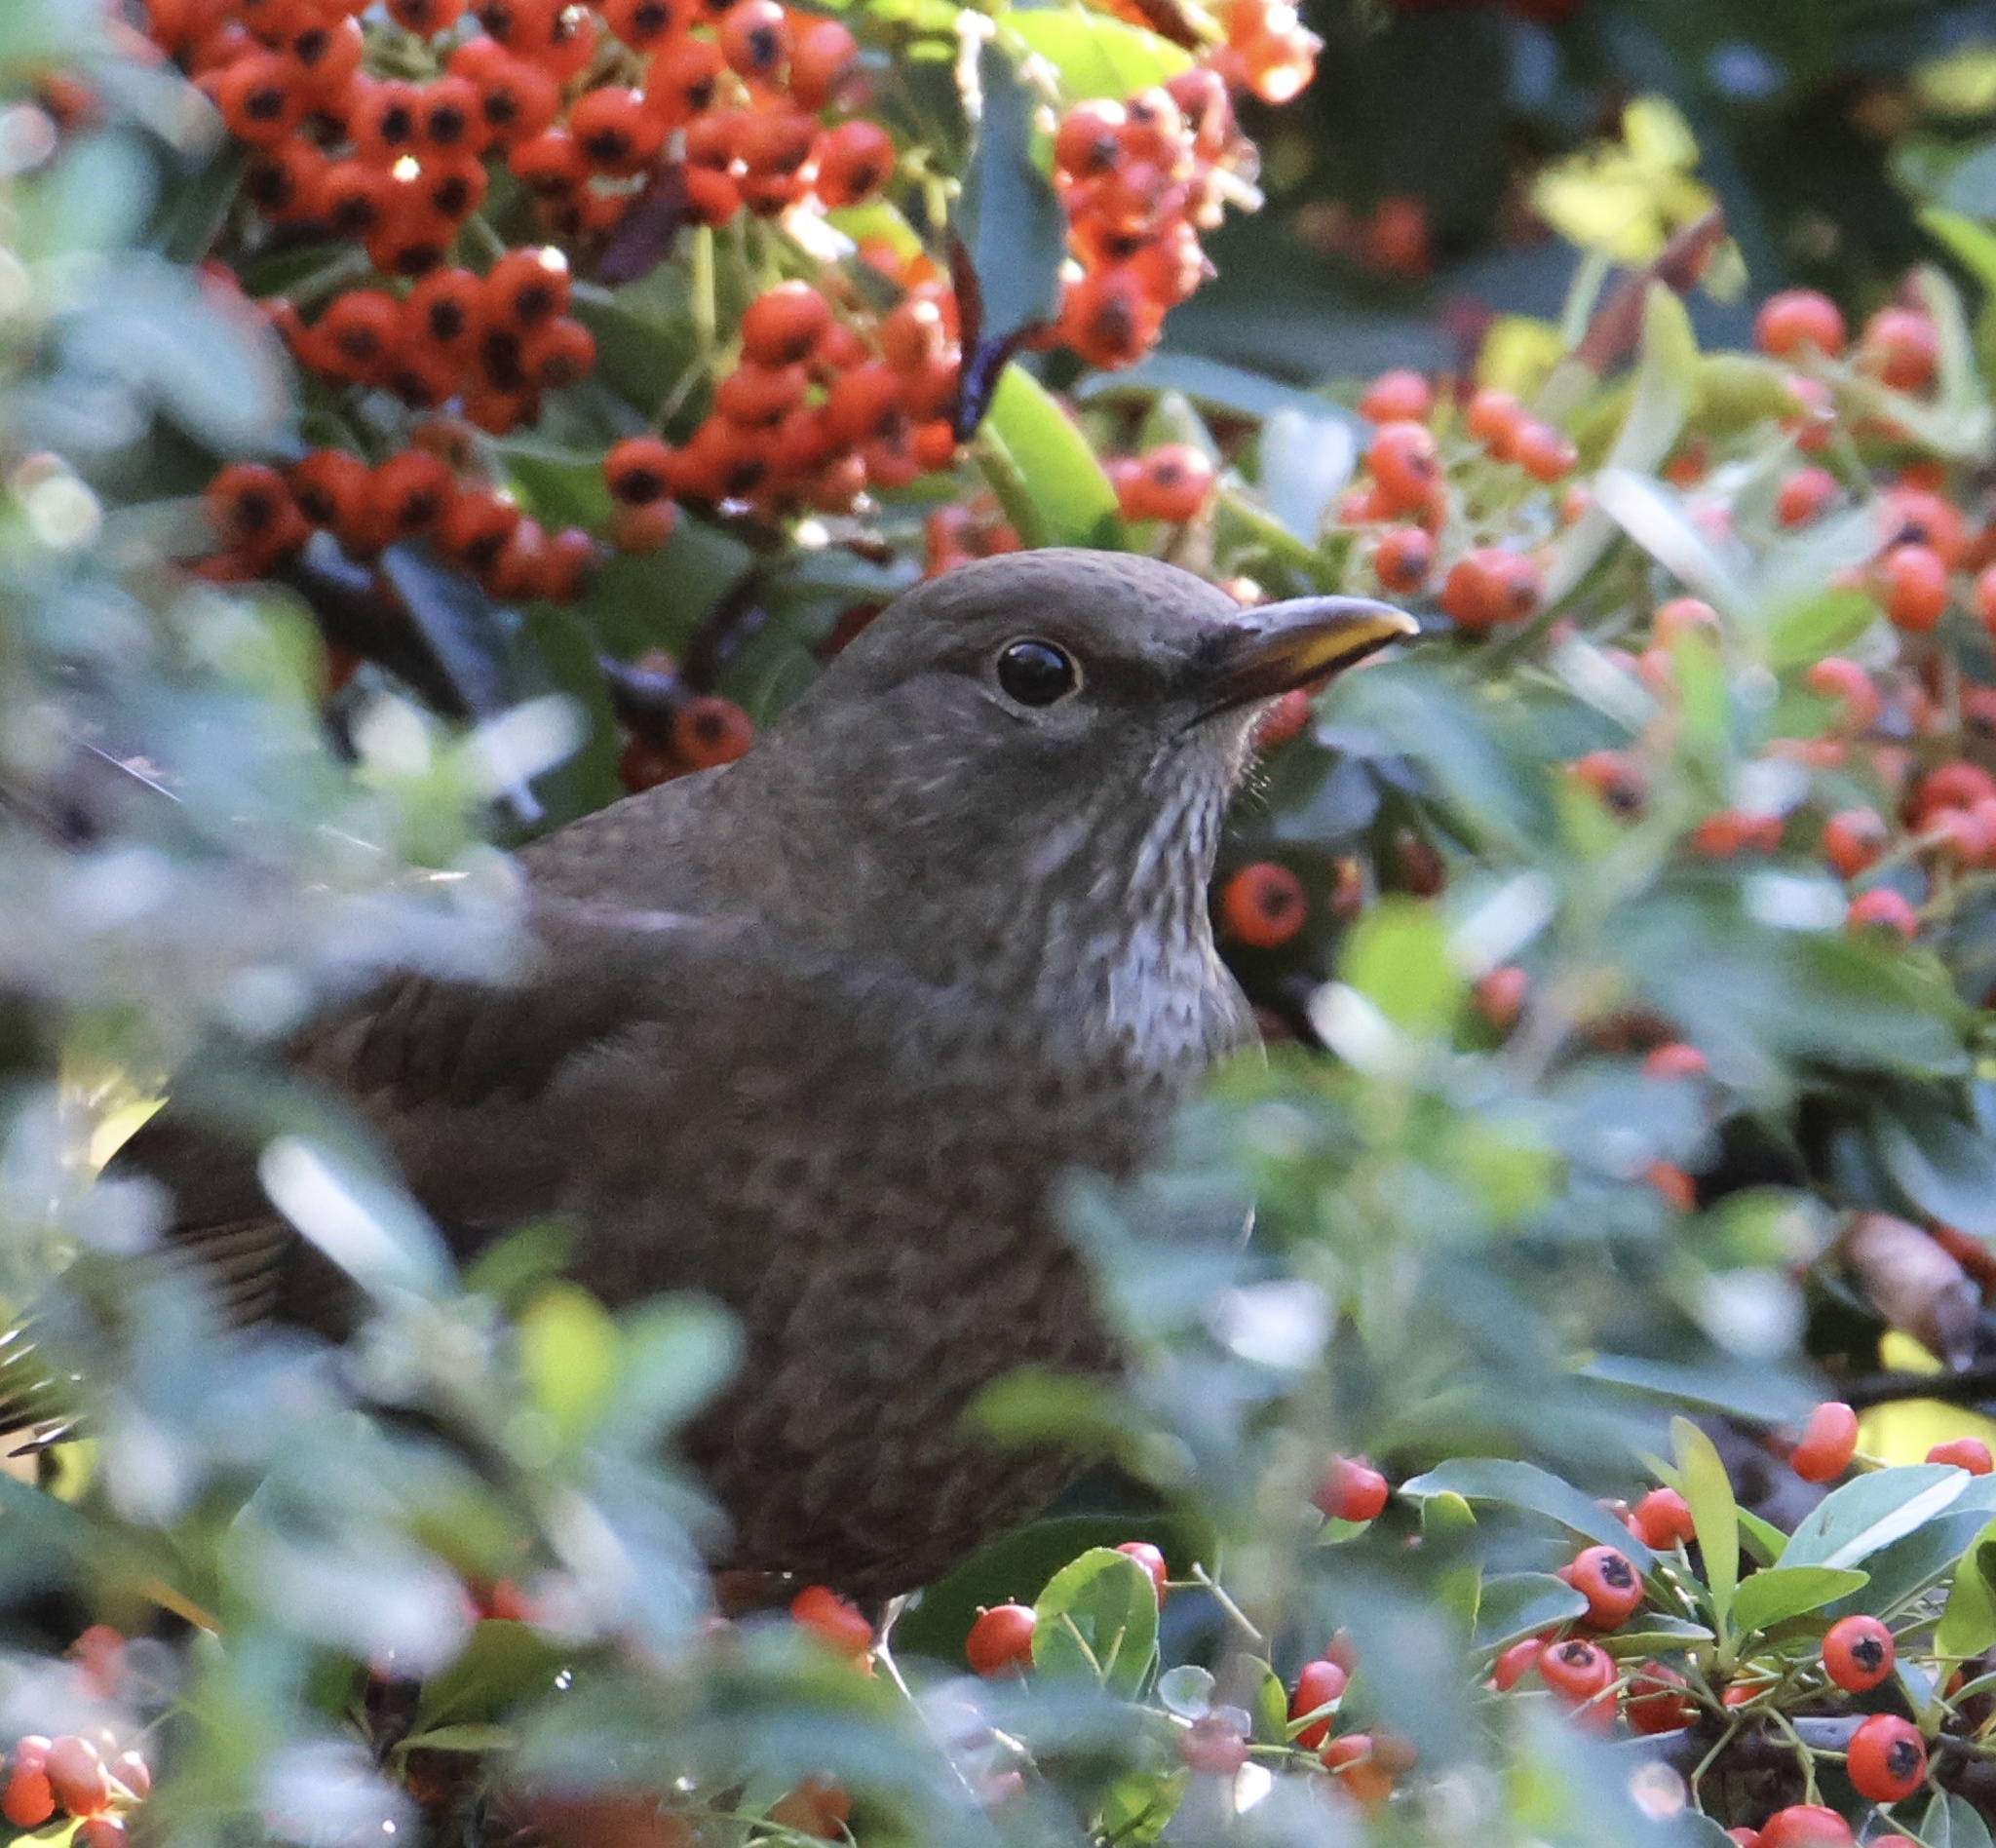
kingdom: Animalia
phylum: Chordata
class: Aves
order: Passeriformes
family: Turdidae
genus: Turdus
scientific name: Turdus merula
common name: Common blackbird
